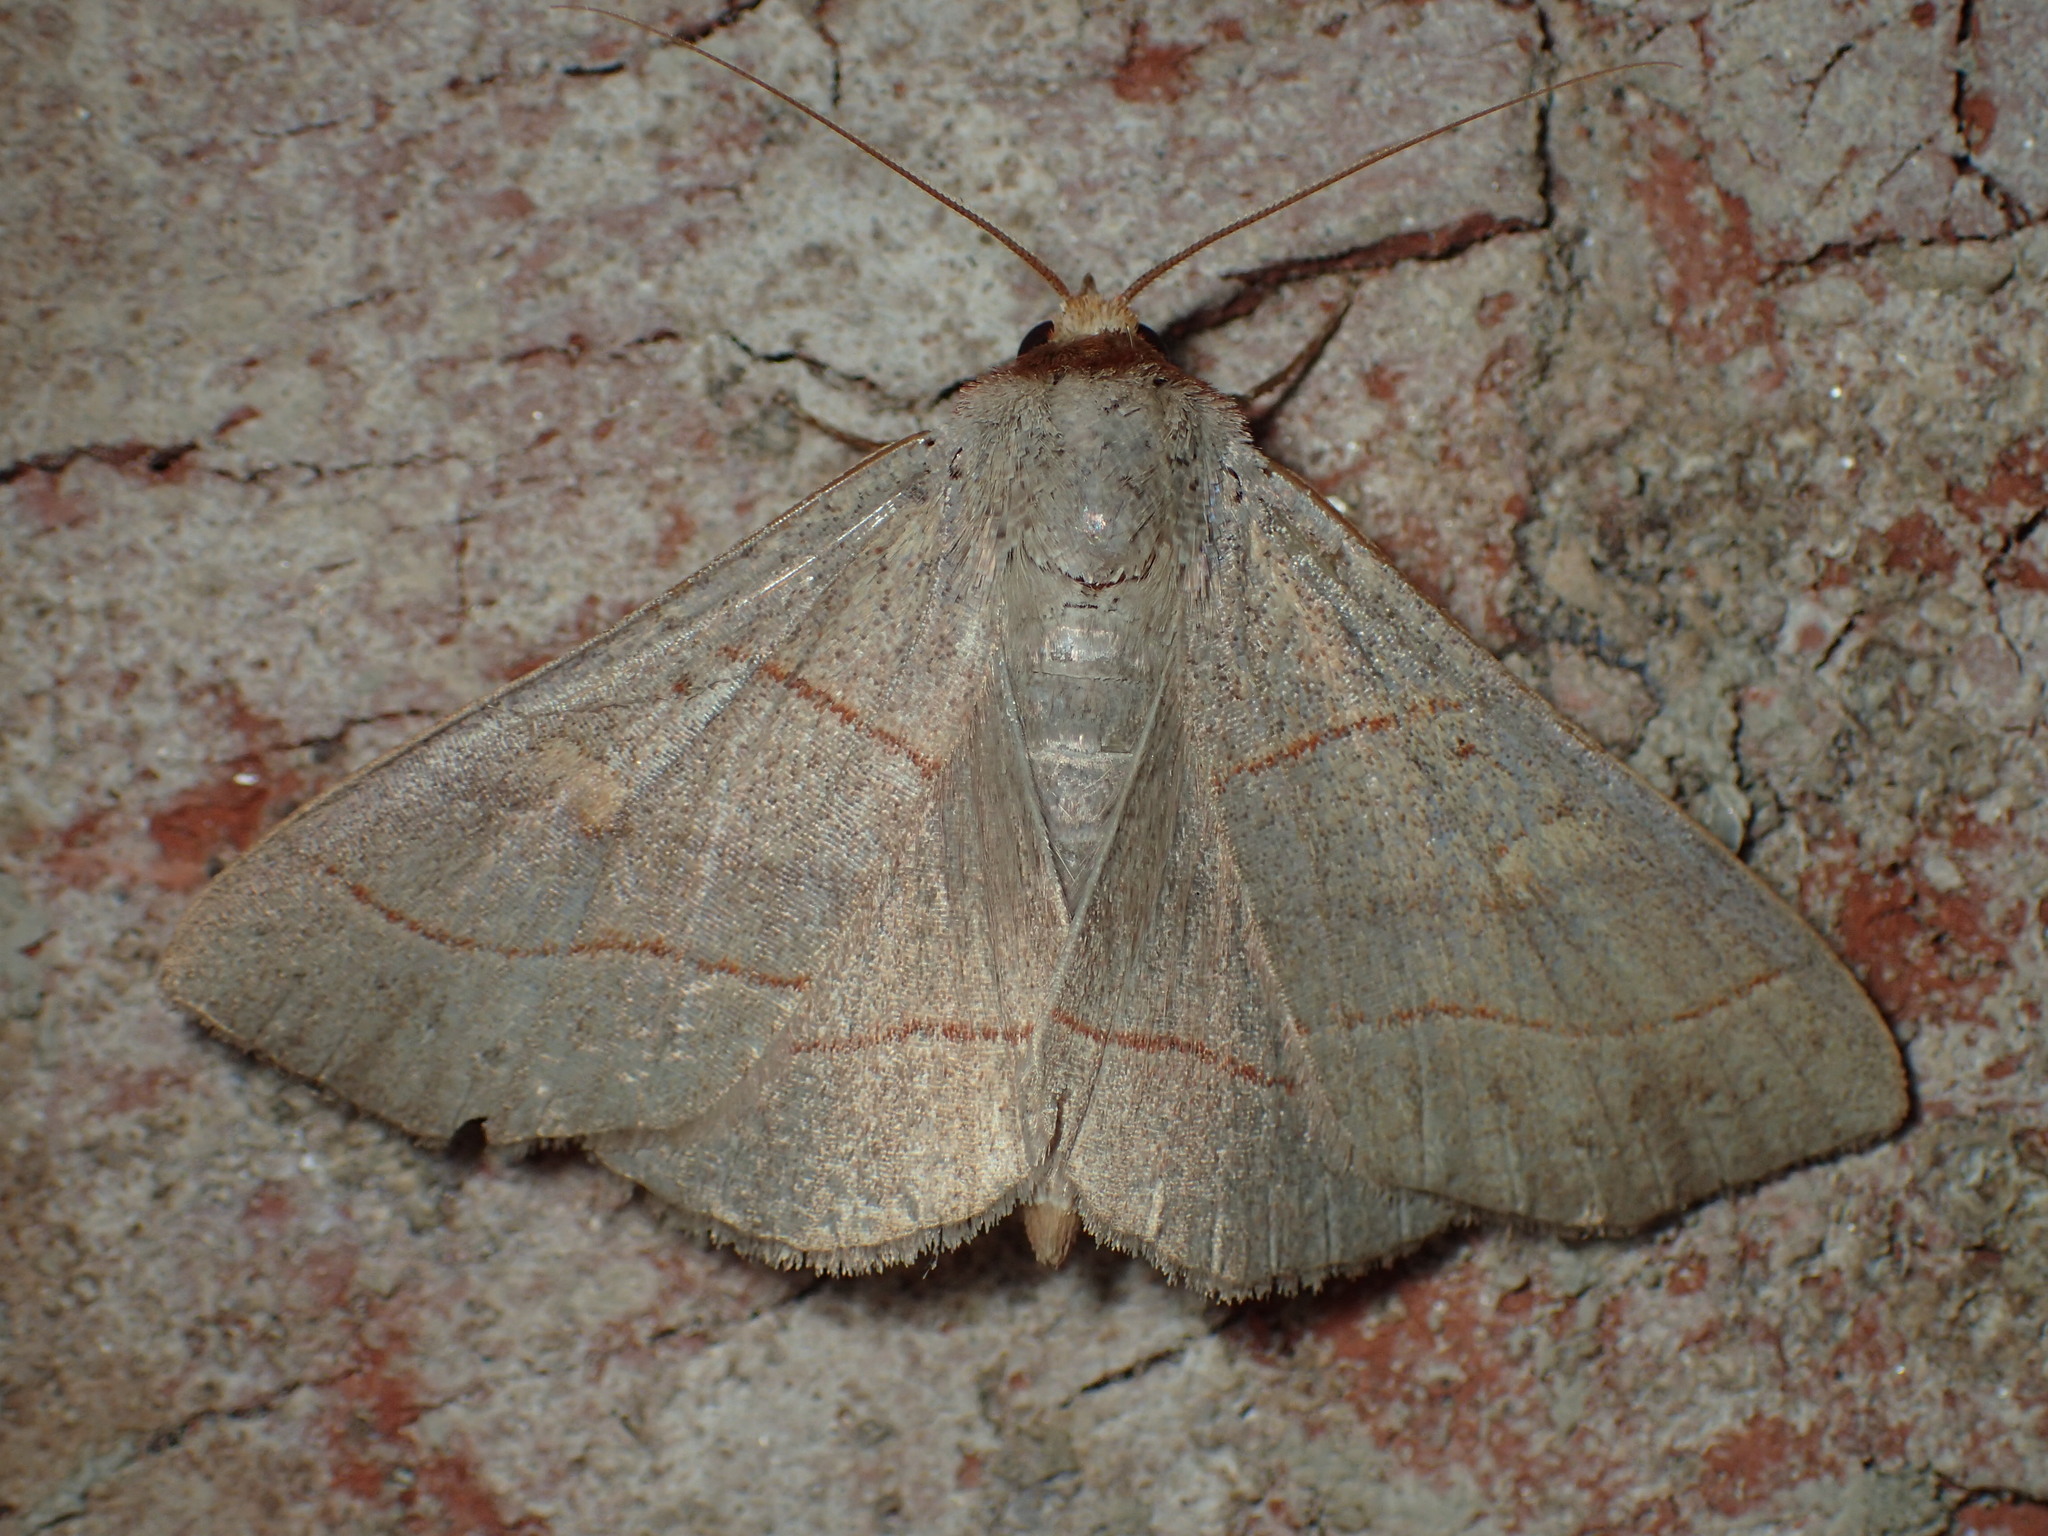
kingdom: Animalia
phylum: Arthropoda
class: Insecta
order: Lepidoptera
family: Erebidae
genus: Panopoda
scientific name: Panopoda rufimargo
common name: Red-lined panopoda moth
